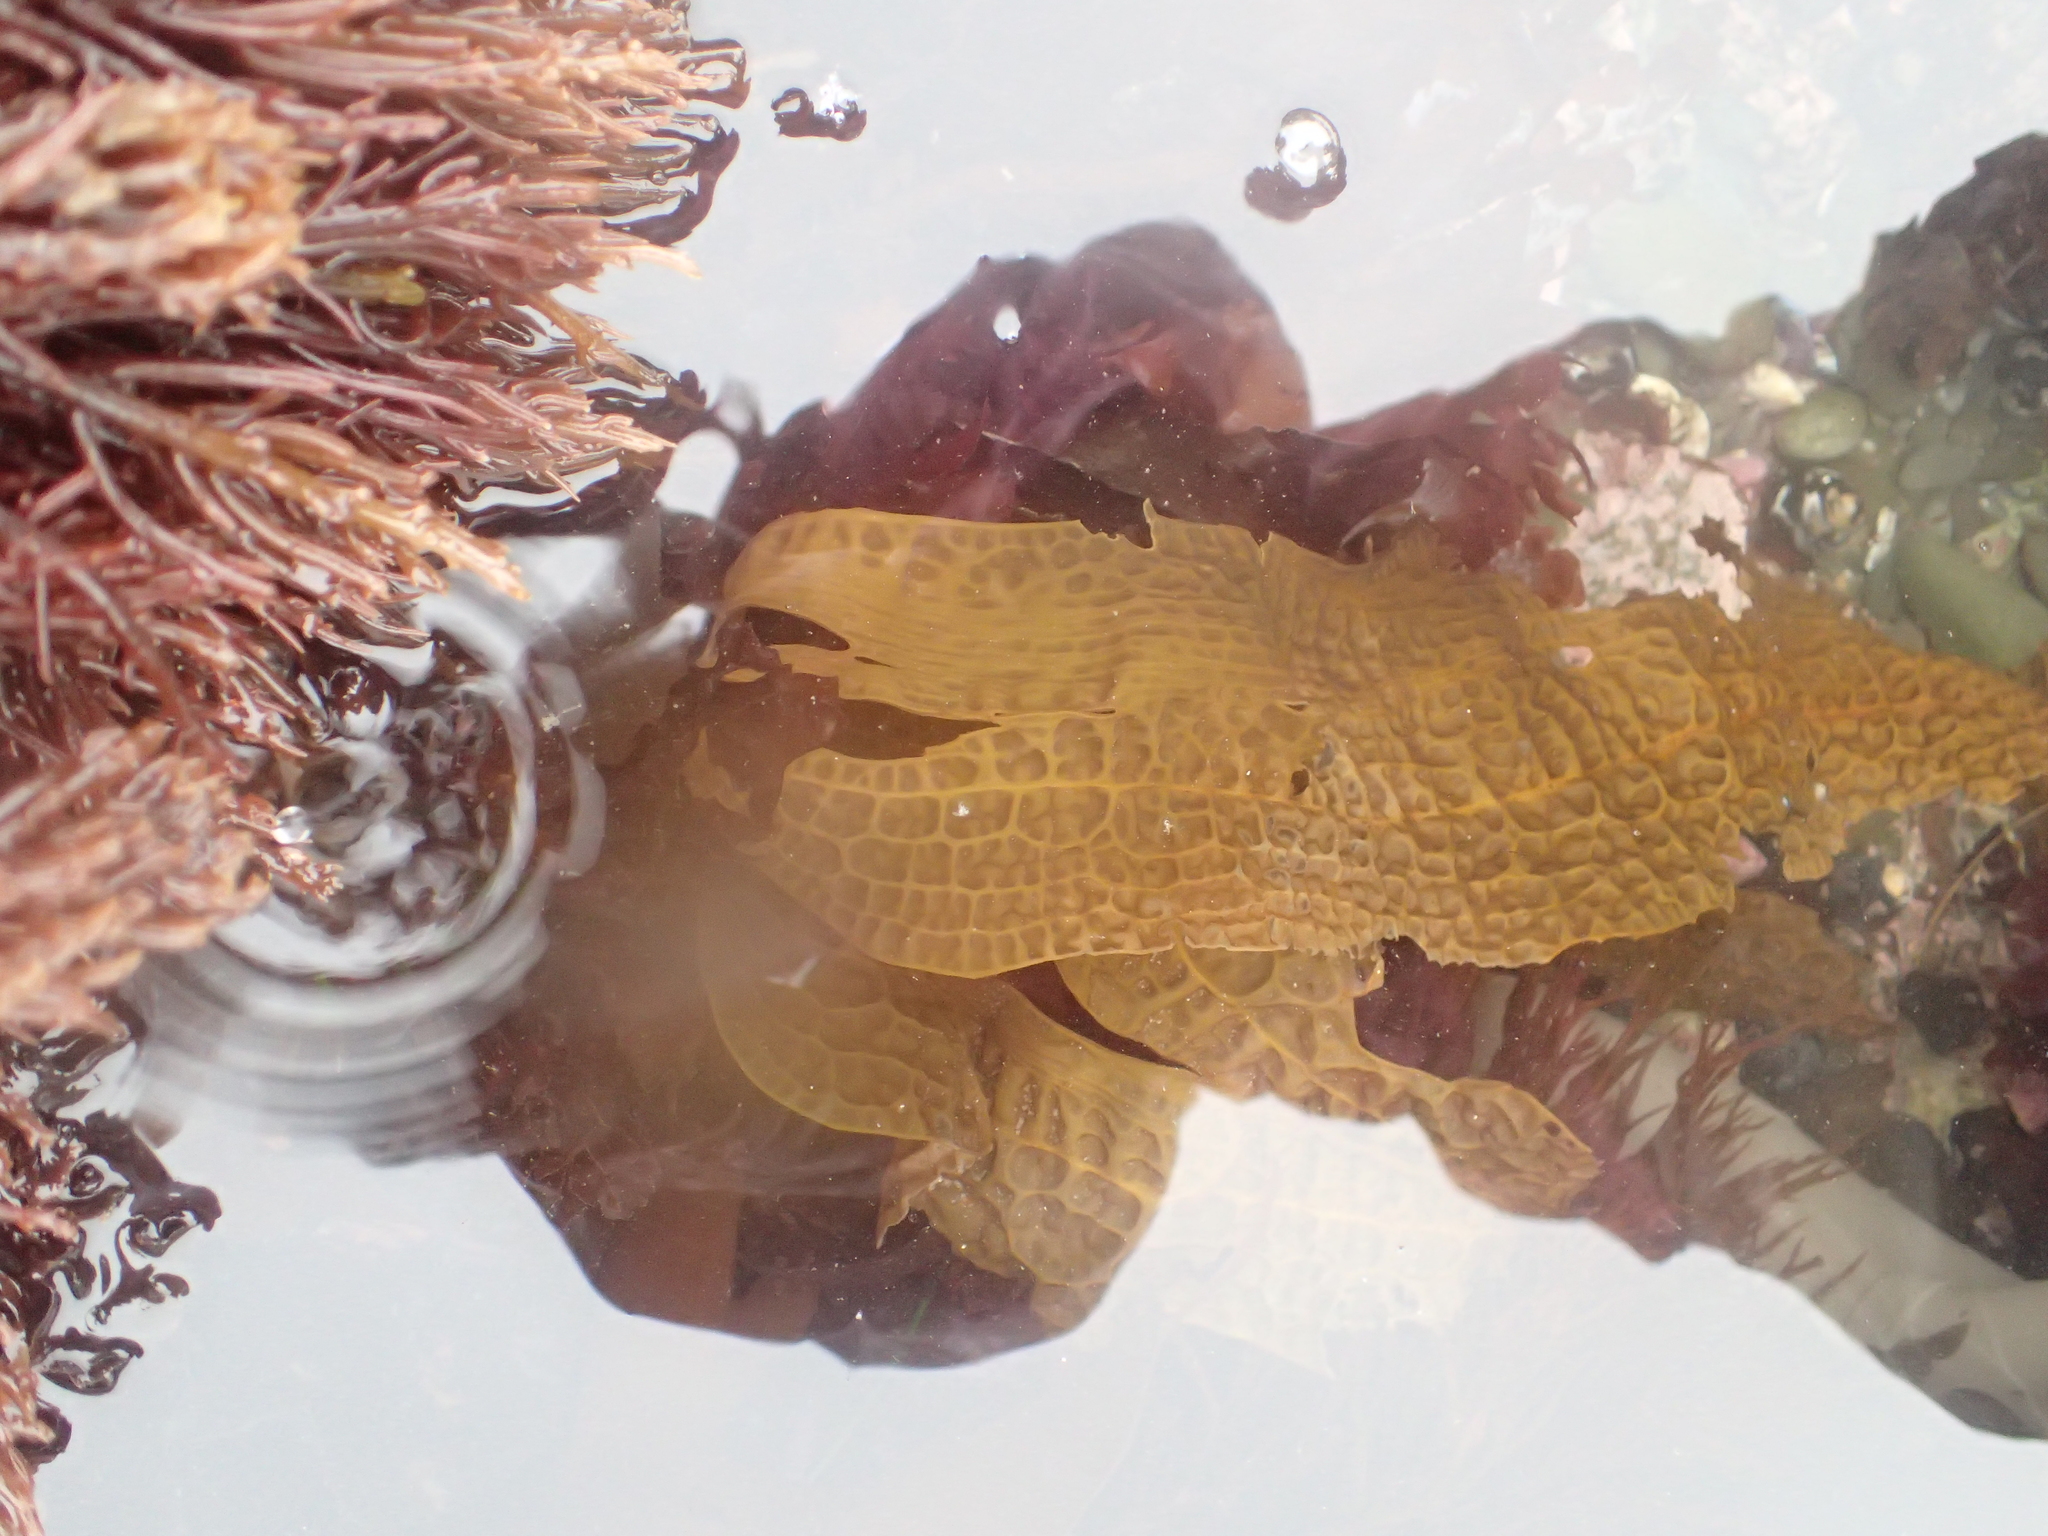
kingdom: Chromista
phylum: Ochrophyta
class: Phaeophyceae
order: Laminariales
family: Costariaceae
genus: Dictyoneurum
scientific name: Dictyoneurum californicum
